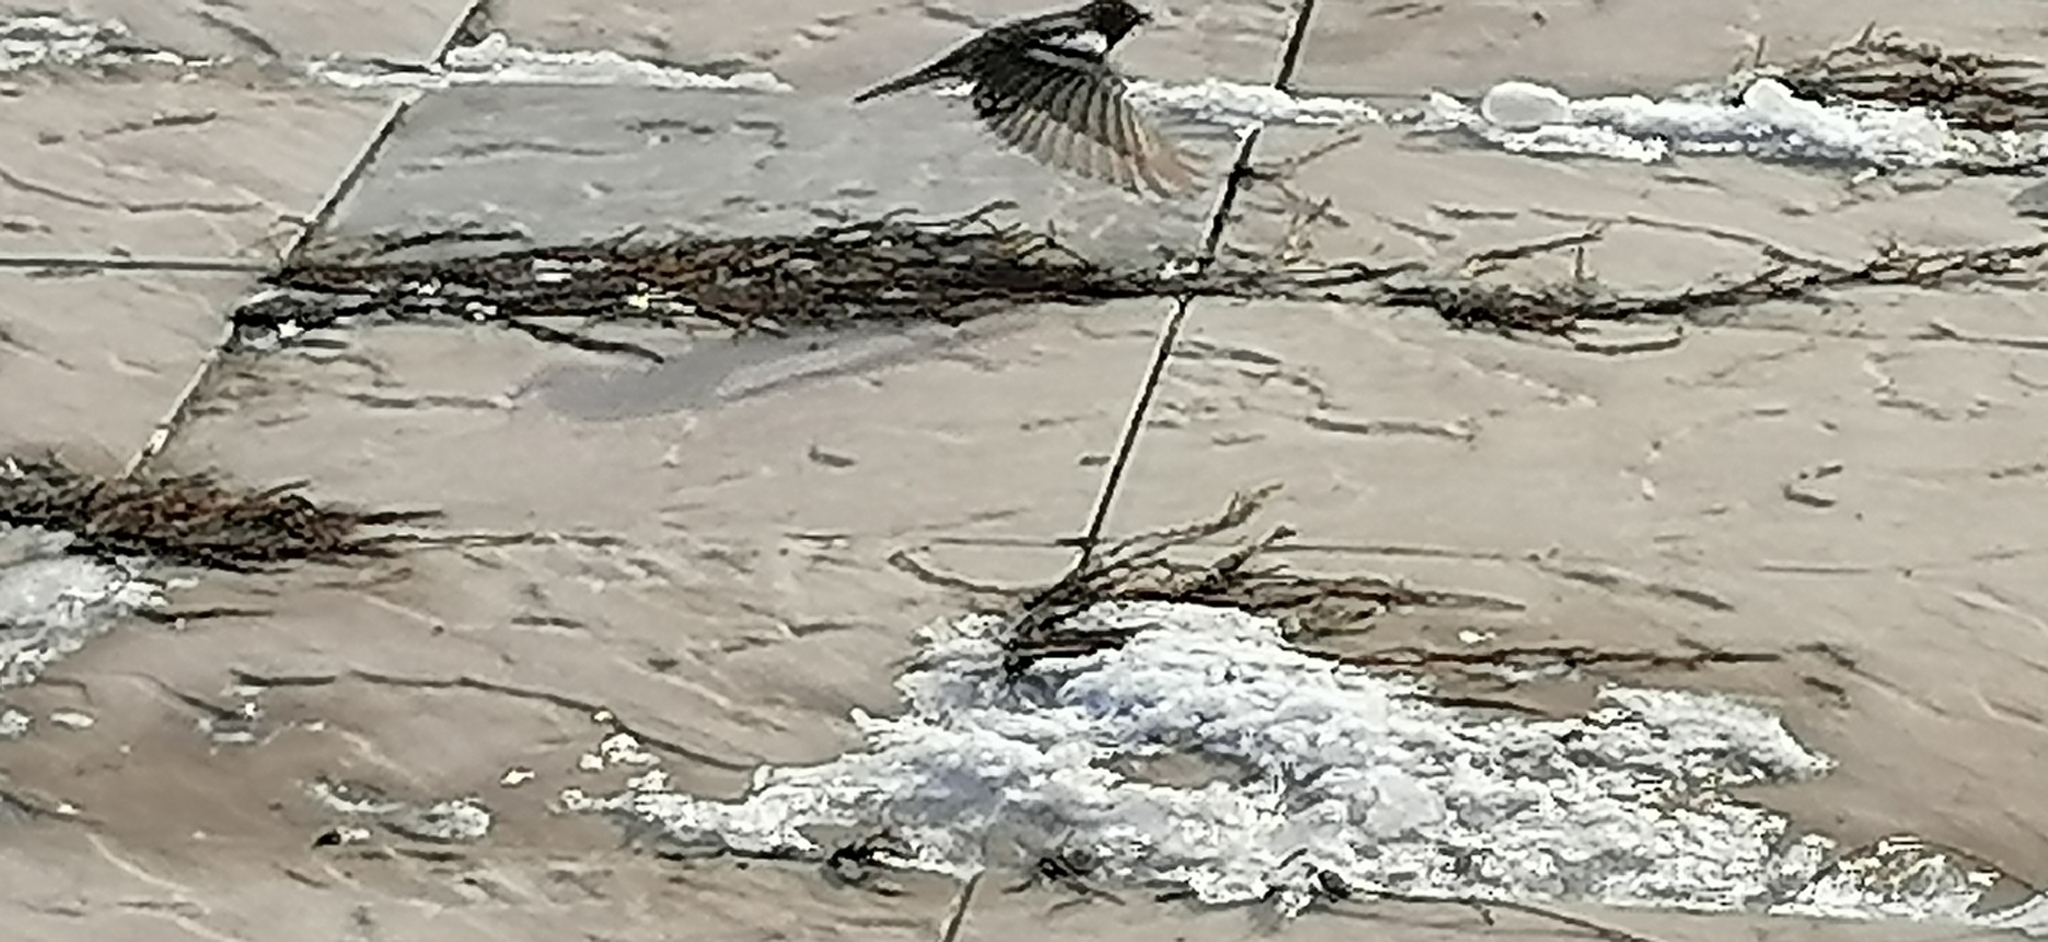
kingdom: Animalia
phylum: Chordata
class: Aves
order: Passeriformes
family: Fringillidae
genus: Fringilla
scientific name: Fringilla coelebs
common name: Common chaffinch
